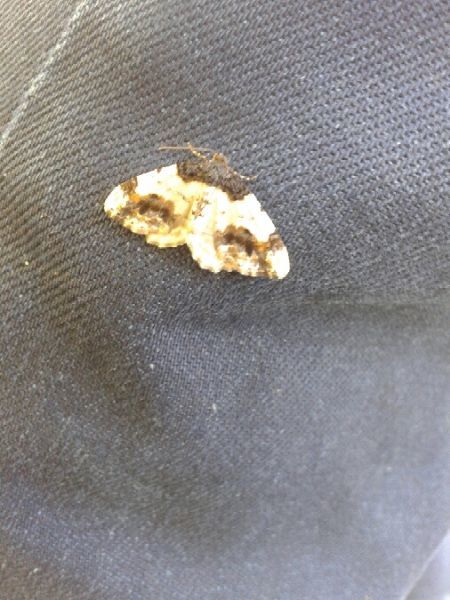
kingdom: Animalia
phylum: Arthropoda
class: Insecta
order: Lepidoptera
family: Geometridae
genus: Ligdia
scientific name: Ligdia adustata
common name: Scorched carpet
